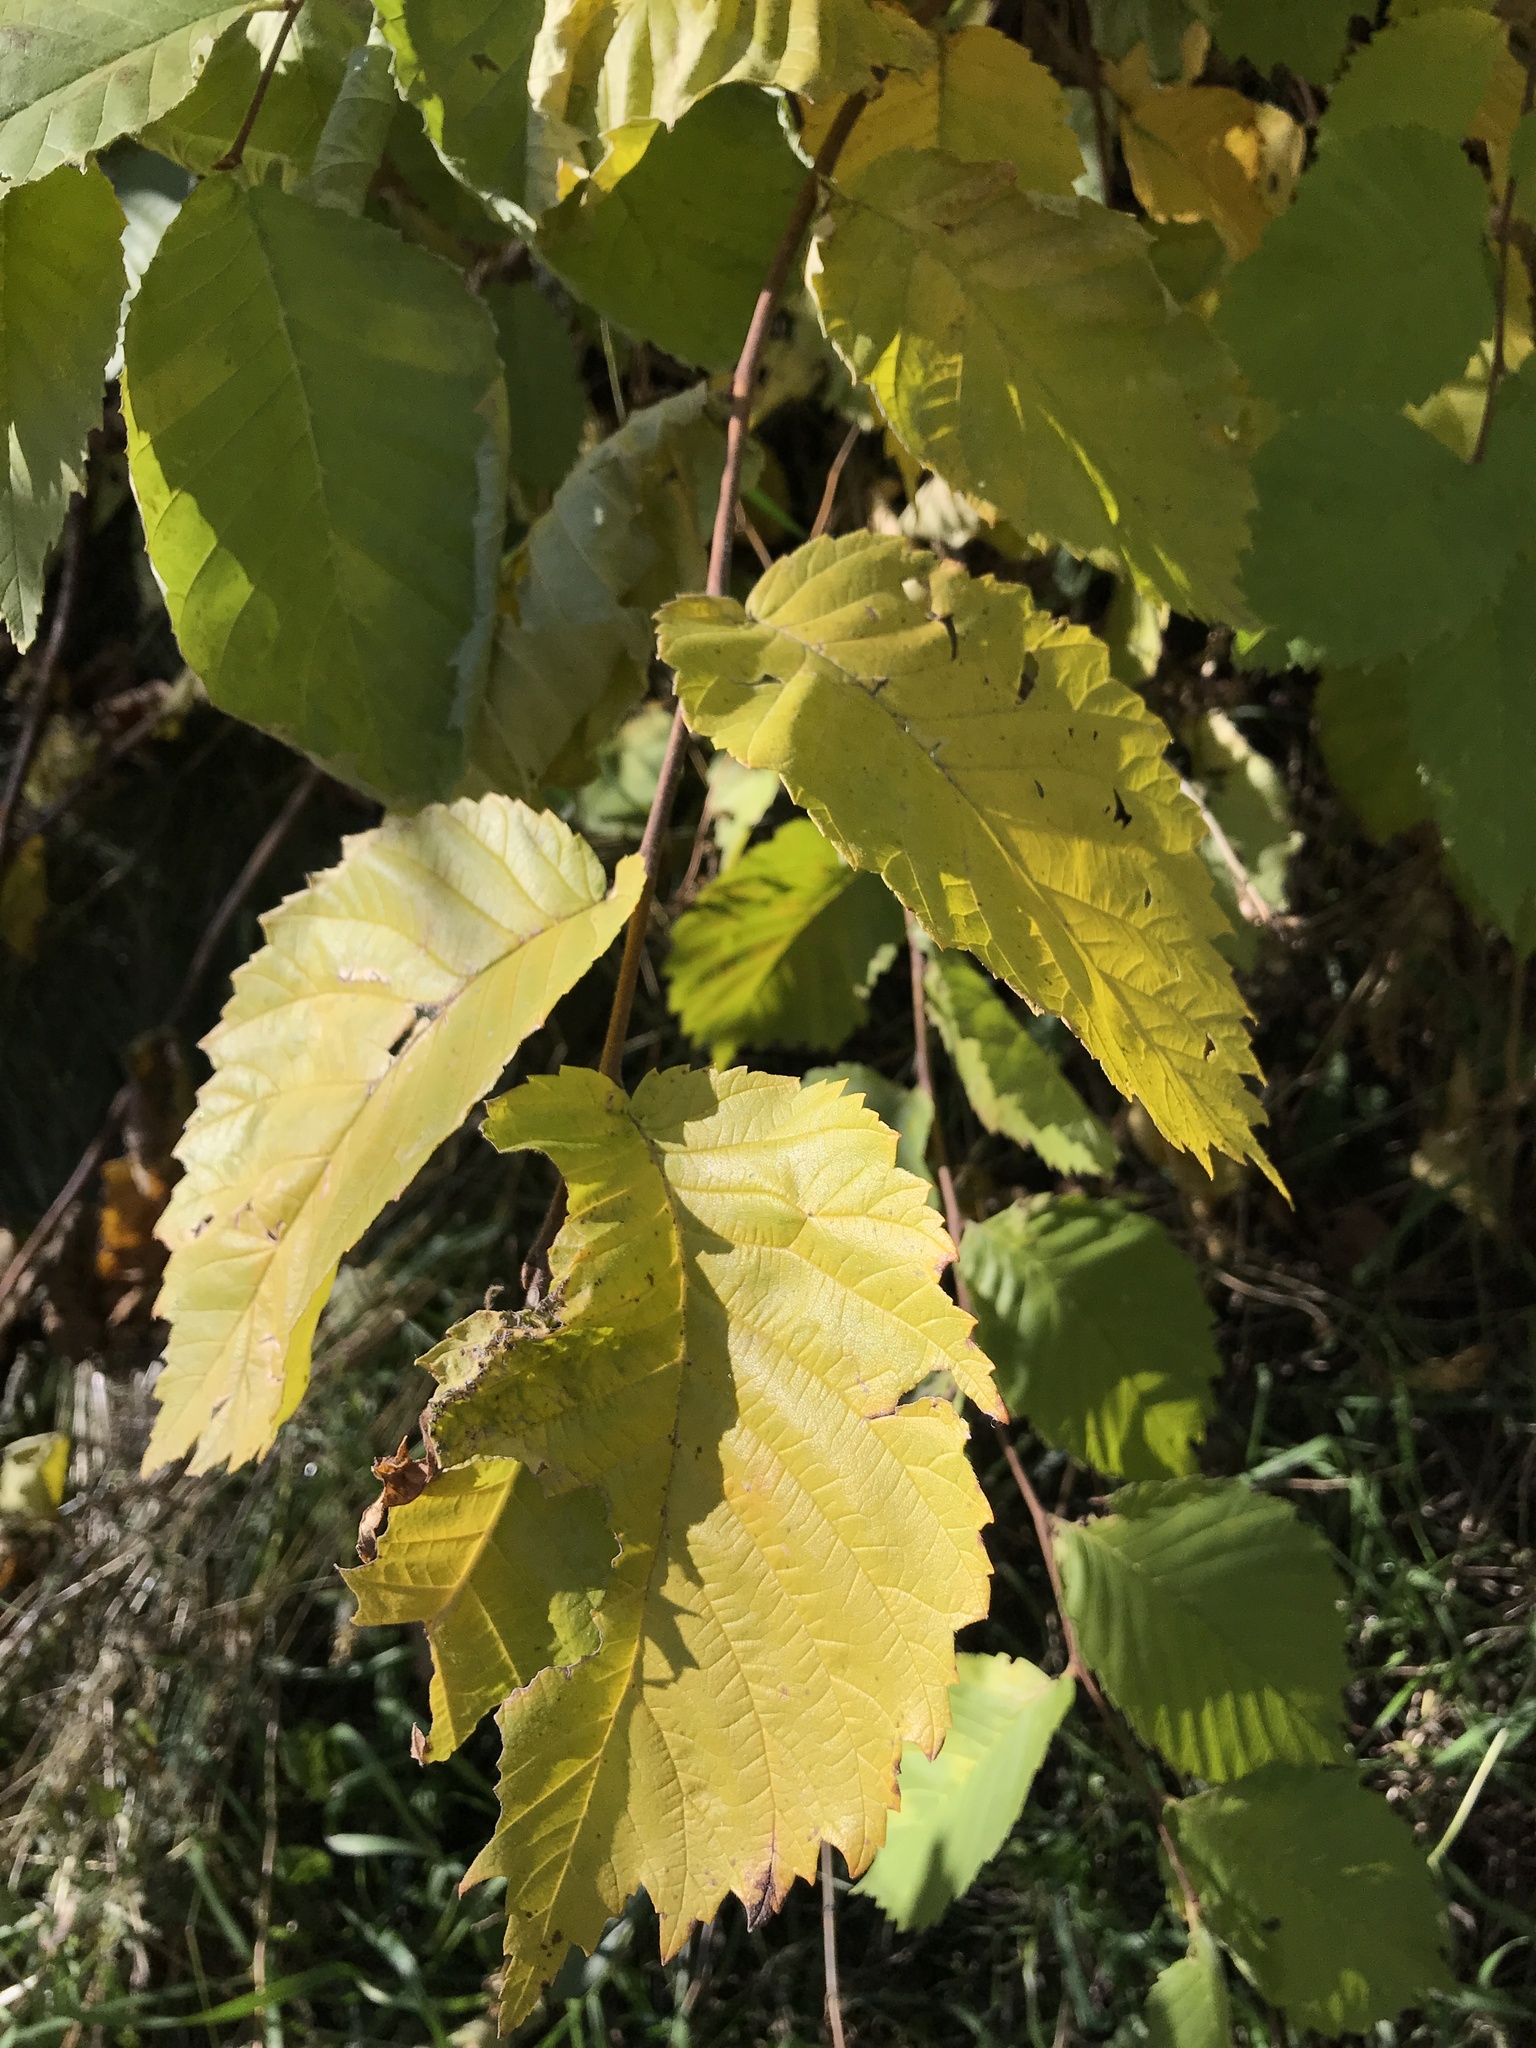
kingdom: Plantae
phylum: Tracheophyta
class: Magnoliopsida
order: Rosales
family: Ulmaceae
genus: Ulmus
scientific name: Ulmus americana
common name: American elm
